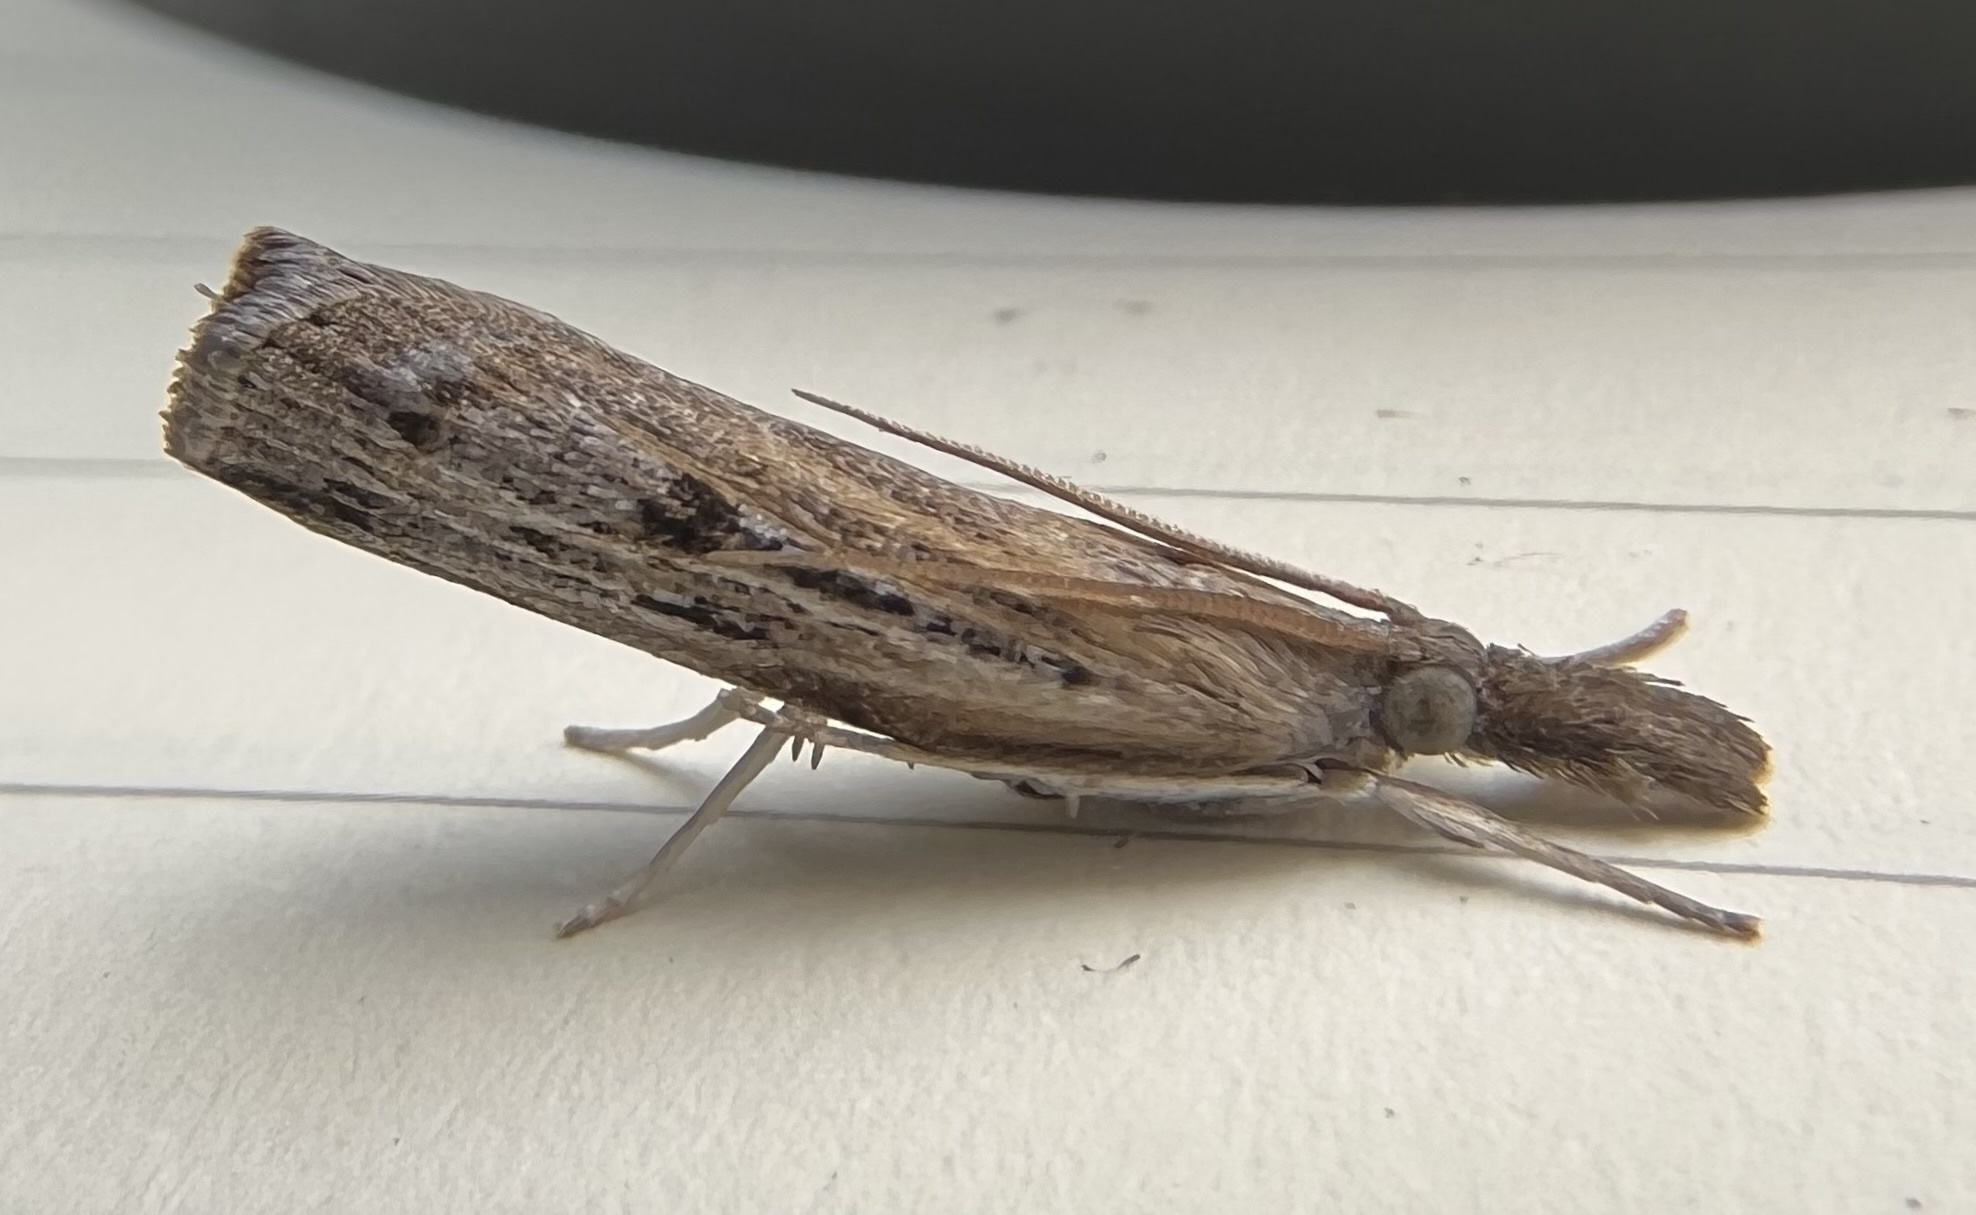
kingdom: Animalia
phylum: Arthropoda
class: Insecta
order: Lepidoptera
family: Crambidae
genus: Fissicrambus
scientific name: Fissicrambus mutabilis
